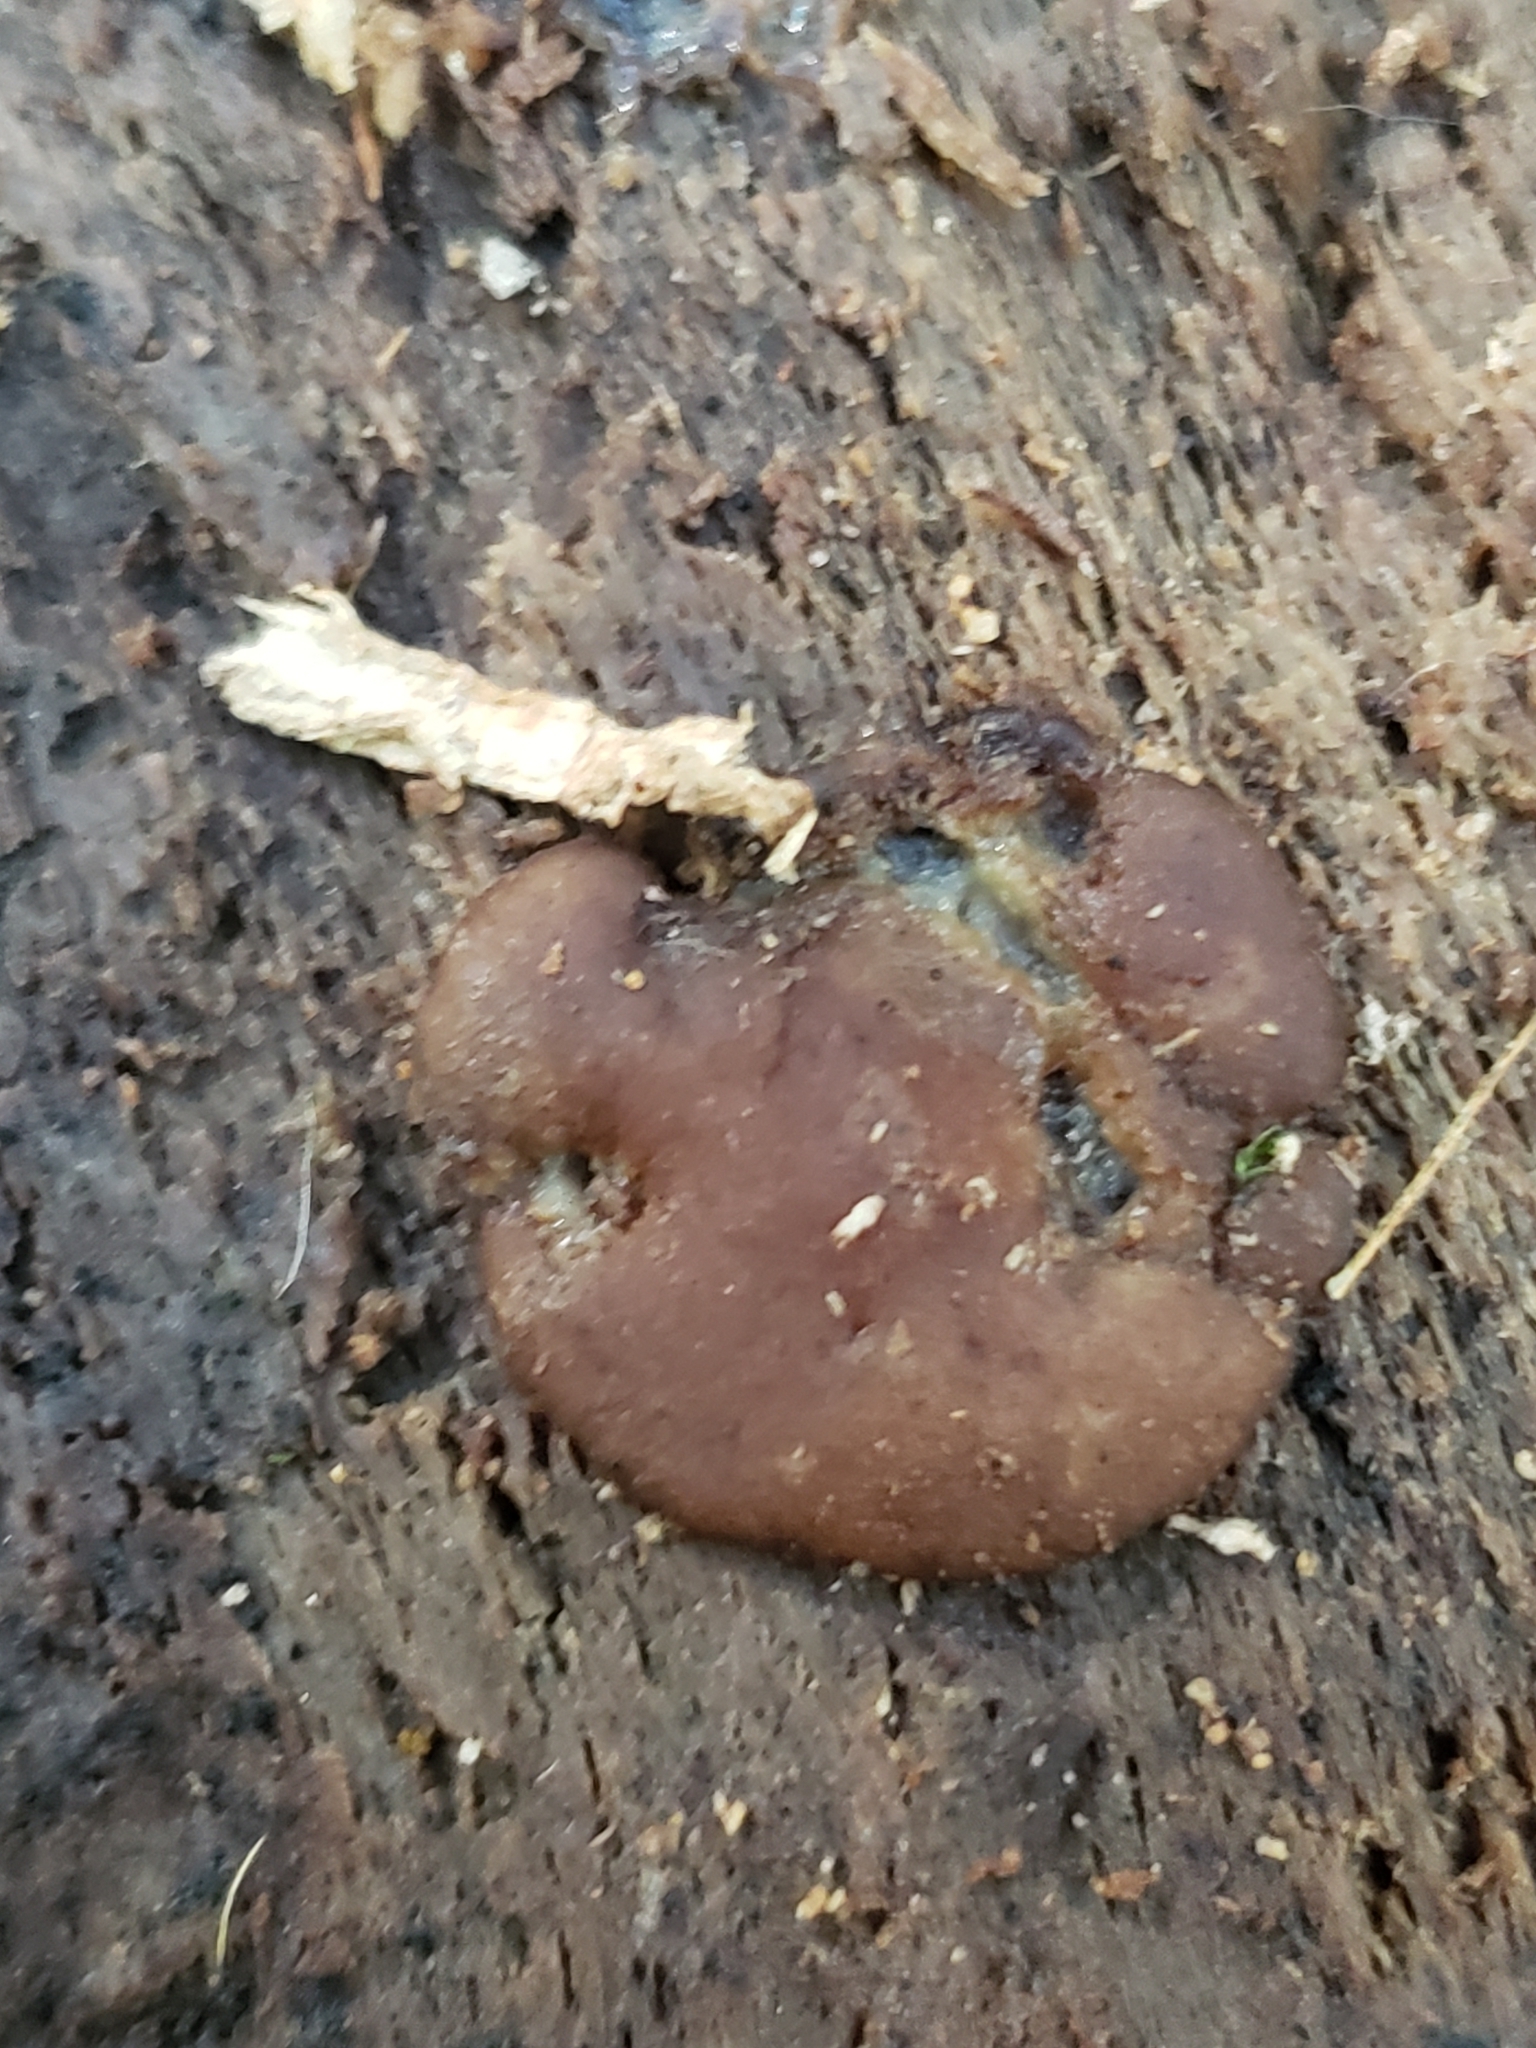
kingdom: Fungi
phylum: Ascomycota
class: Pezizomycetes
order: Pezizales
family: Pezizaceae
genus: Pachyella
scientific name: Pachyella clypeata
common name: Copper penny fungus
